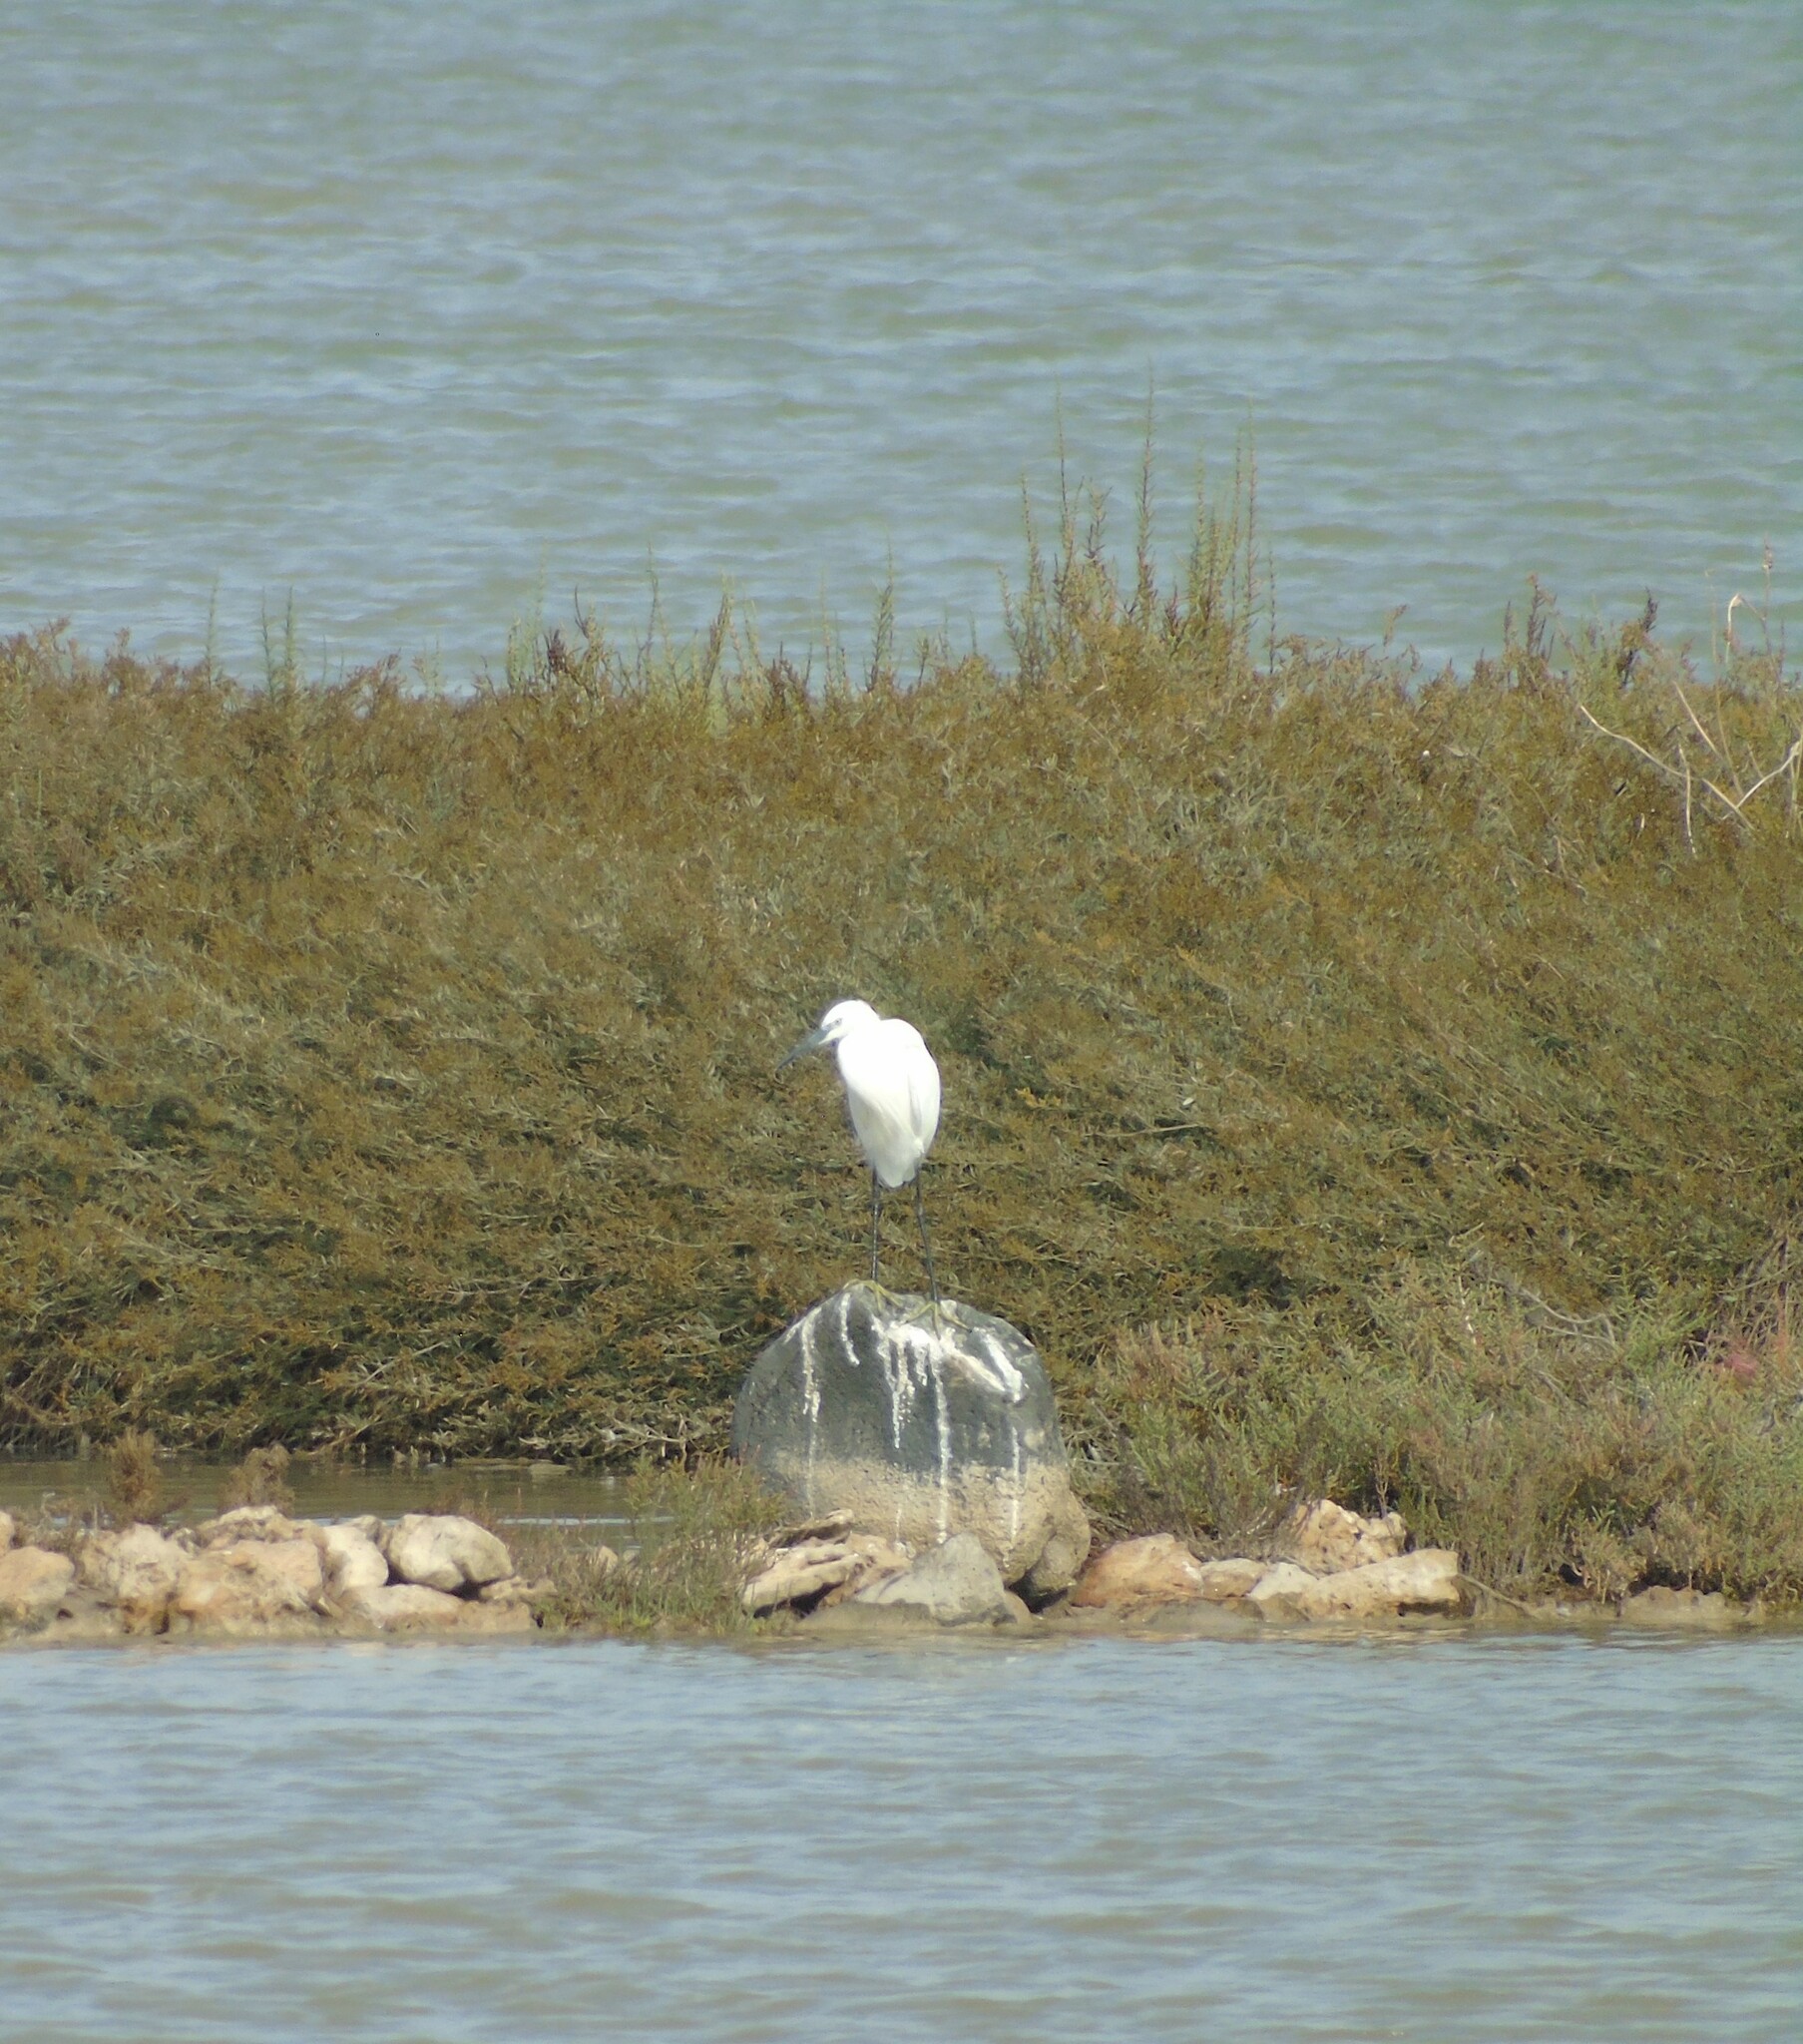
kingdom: Animalia
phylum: Chordata
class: Aves
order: Pelecaniformes
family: Ardeidae
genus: Egretta
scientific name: Egretta garzetta
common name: Little egret
